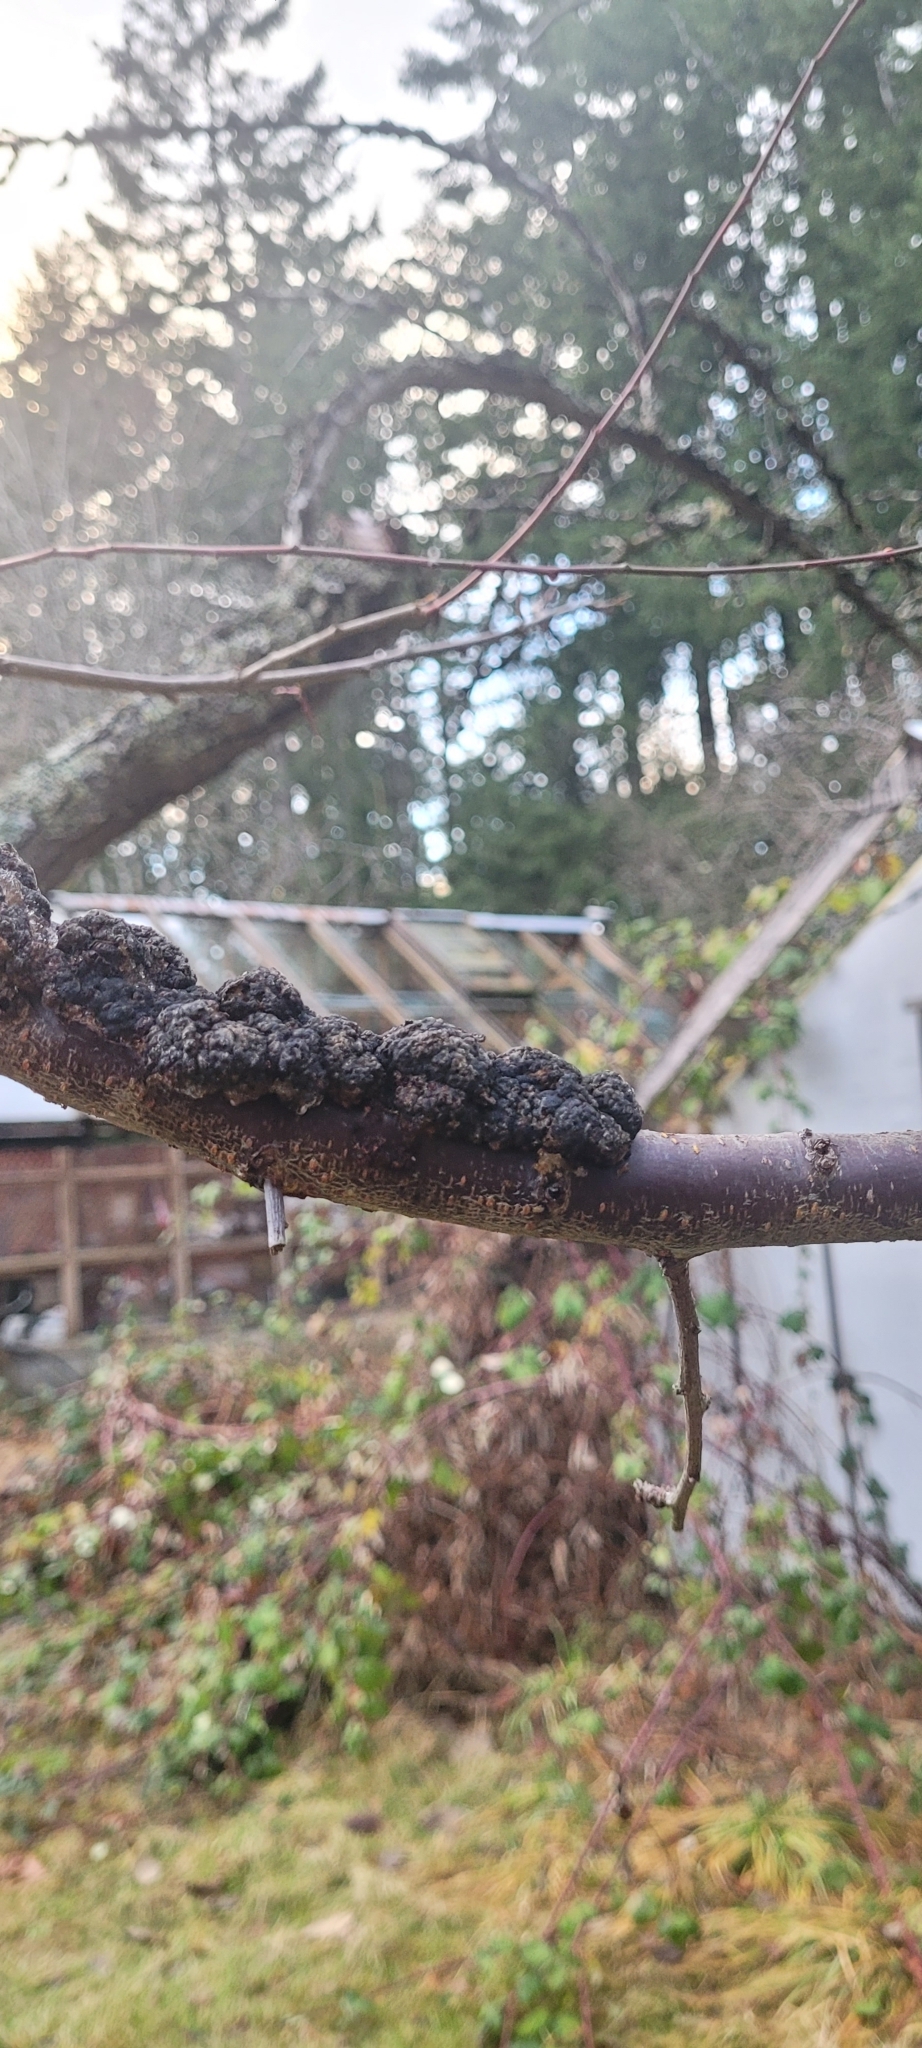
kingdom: Fungi
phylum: Ascomycota
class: Dothideomycetes
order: Venturiales
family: Venturiaceae
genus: Apiosporina
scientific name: Apiosporina morbosa
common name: Black knot
